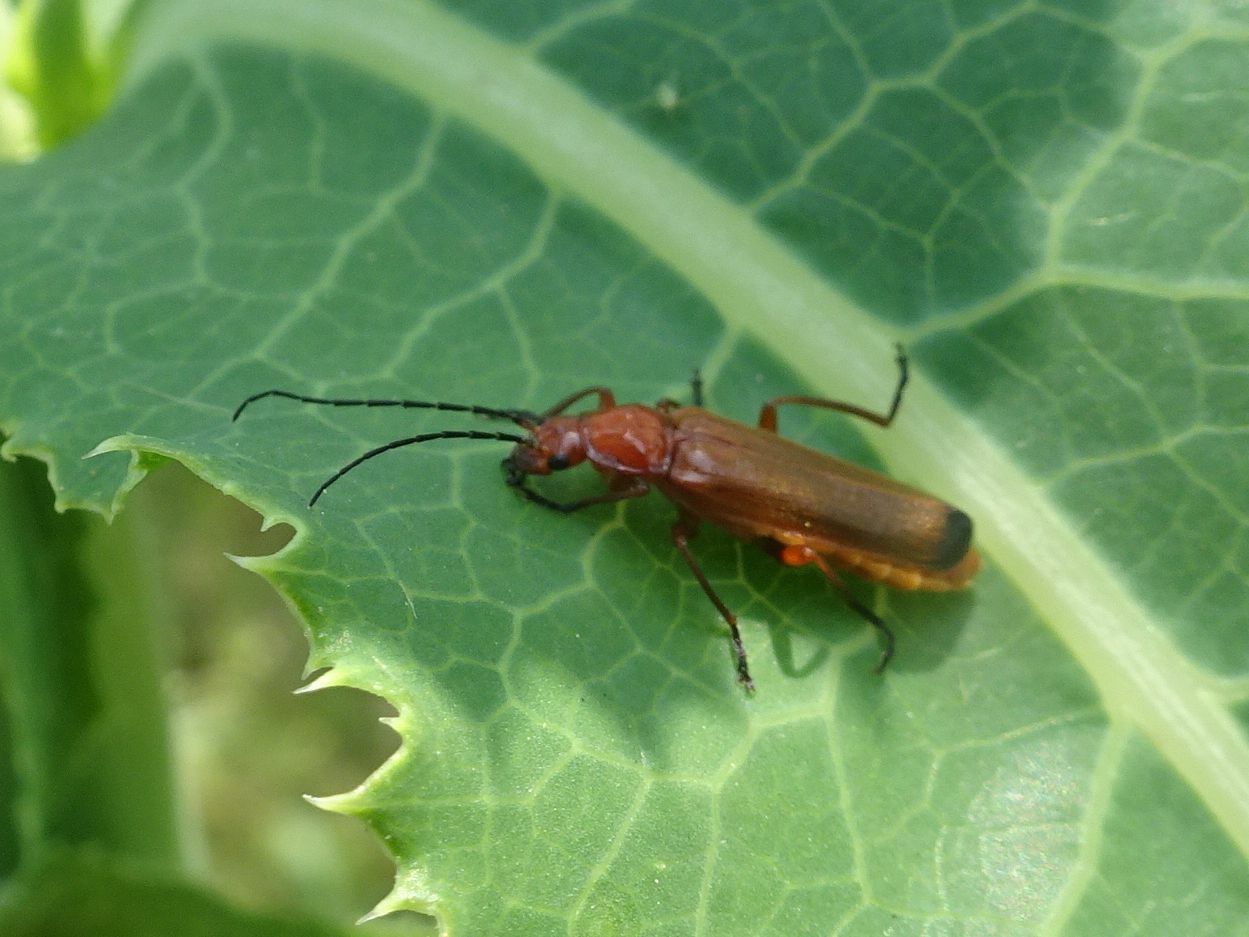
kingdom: Animalia
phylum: Arthropoda
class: Insecta
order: Coleoptera
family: Cantharidae
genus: Rhagonycha
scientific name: Rhagonycha fulva
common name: Common red soldier beetle
